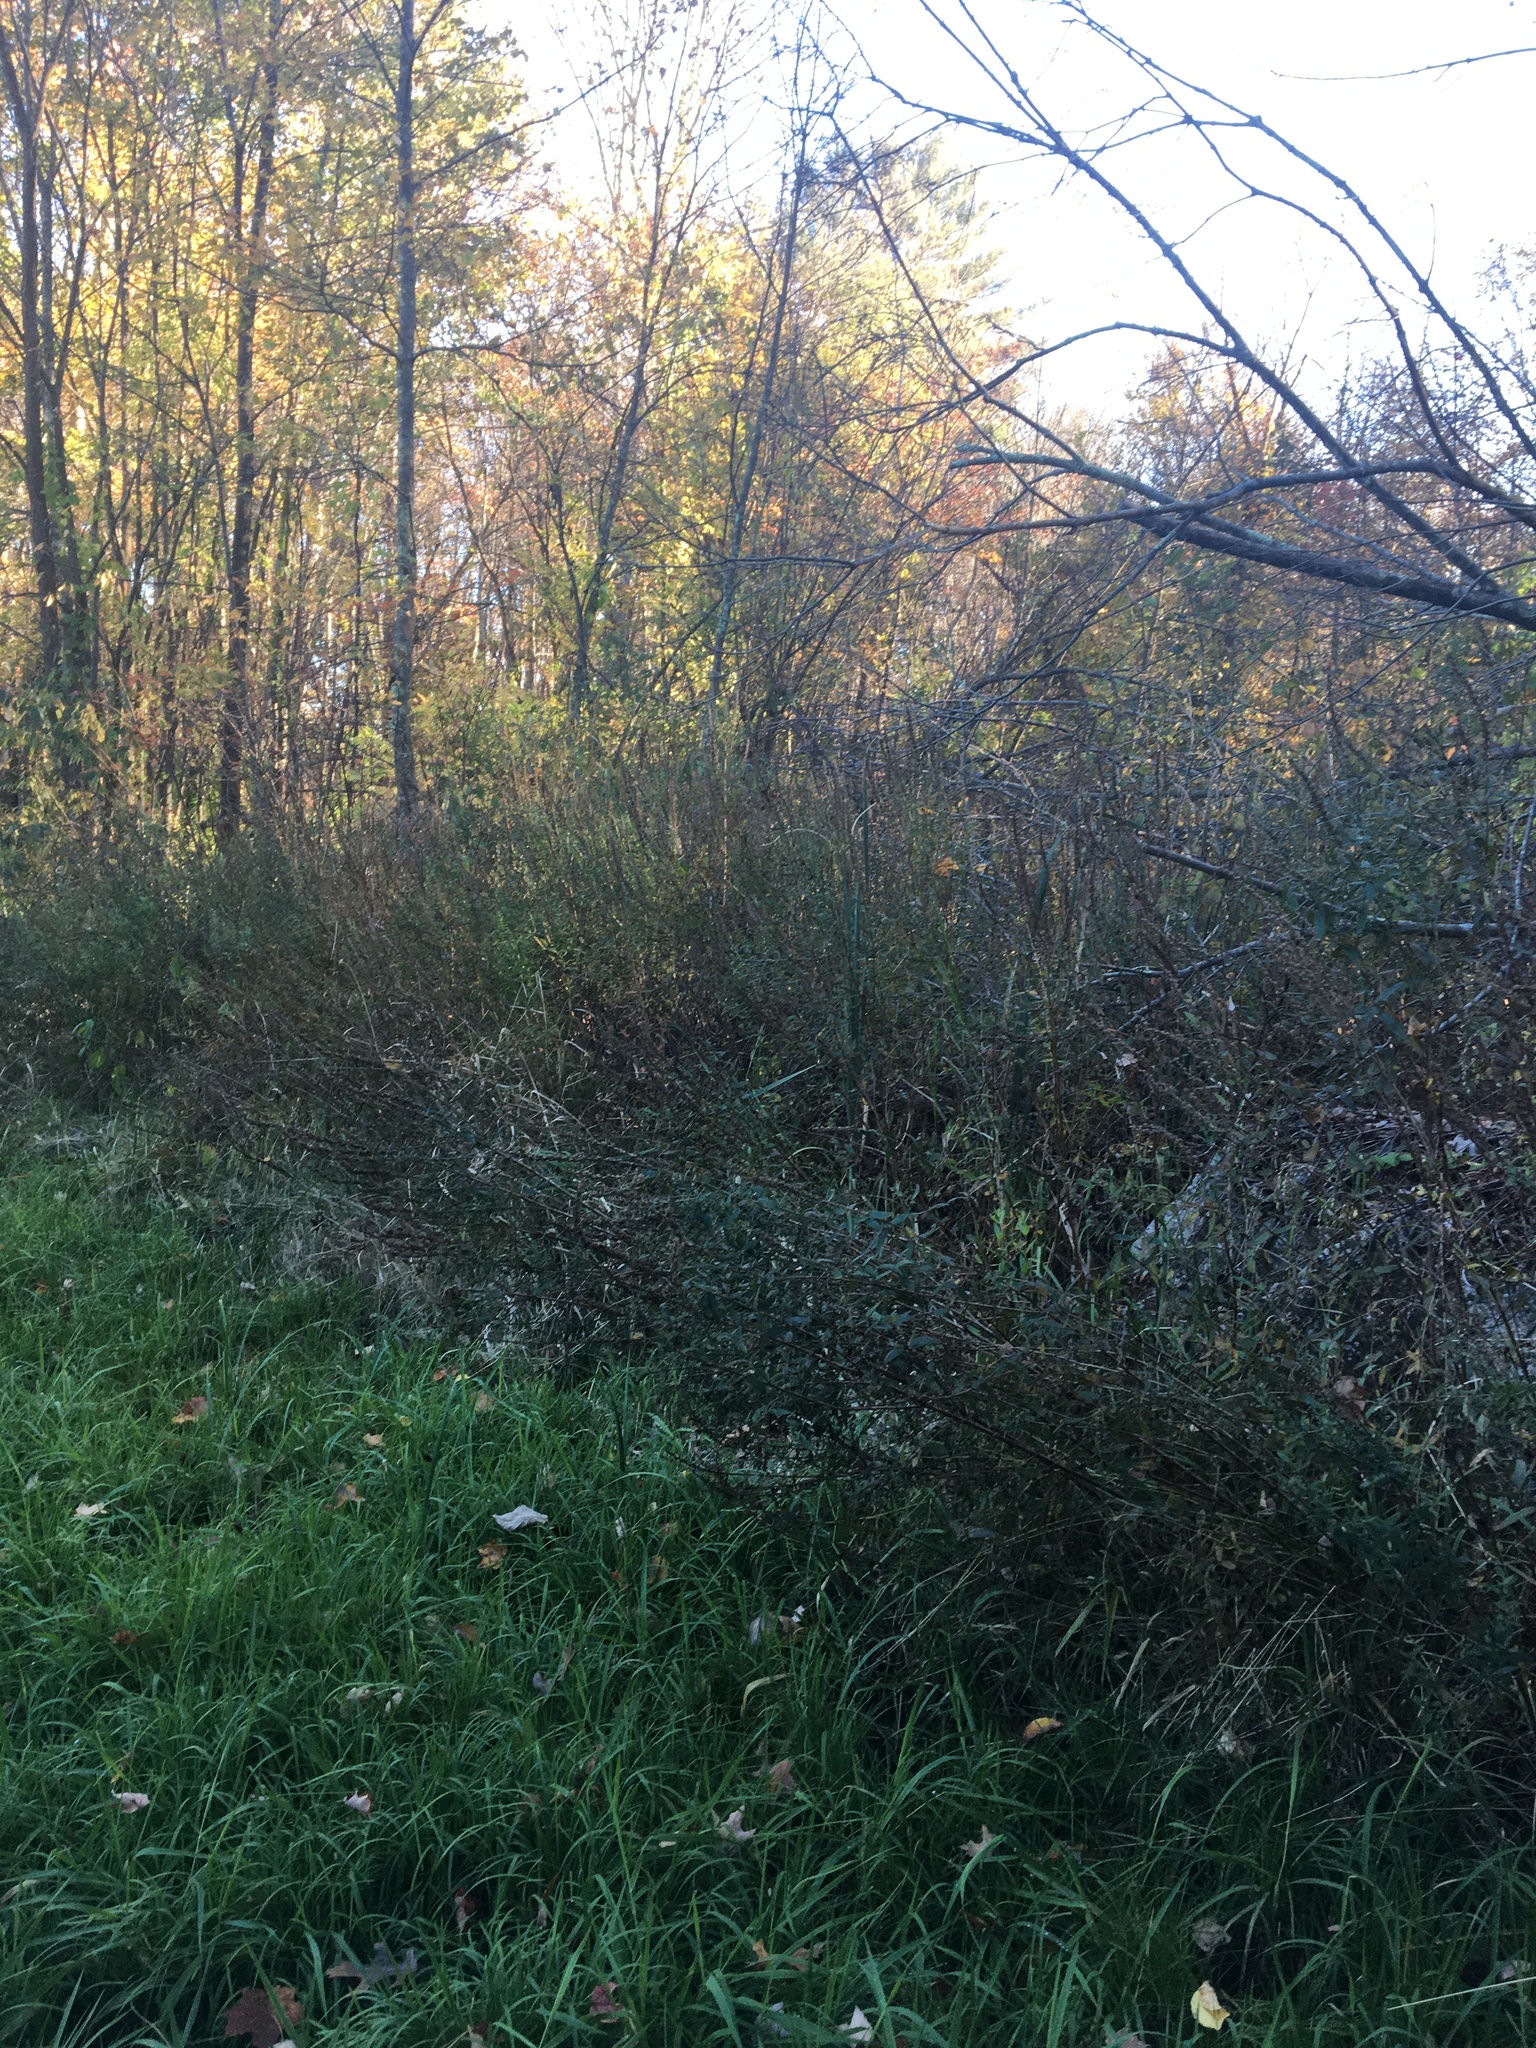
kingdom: Plantae
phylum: Tracheophyta
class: Magnoliopsida
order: Myrtales
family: Lythraceae
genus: Lythrum
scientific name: Lythrum salicaria
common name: Purple loosestrife
